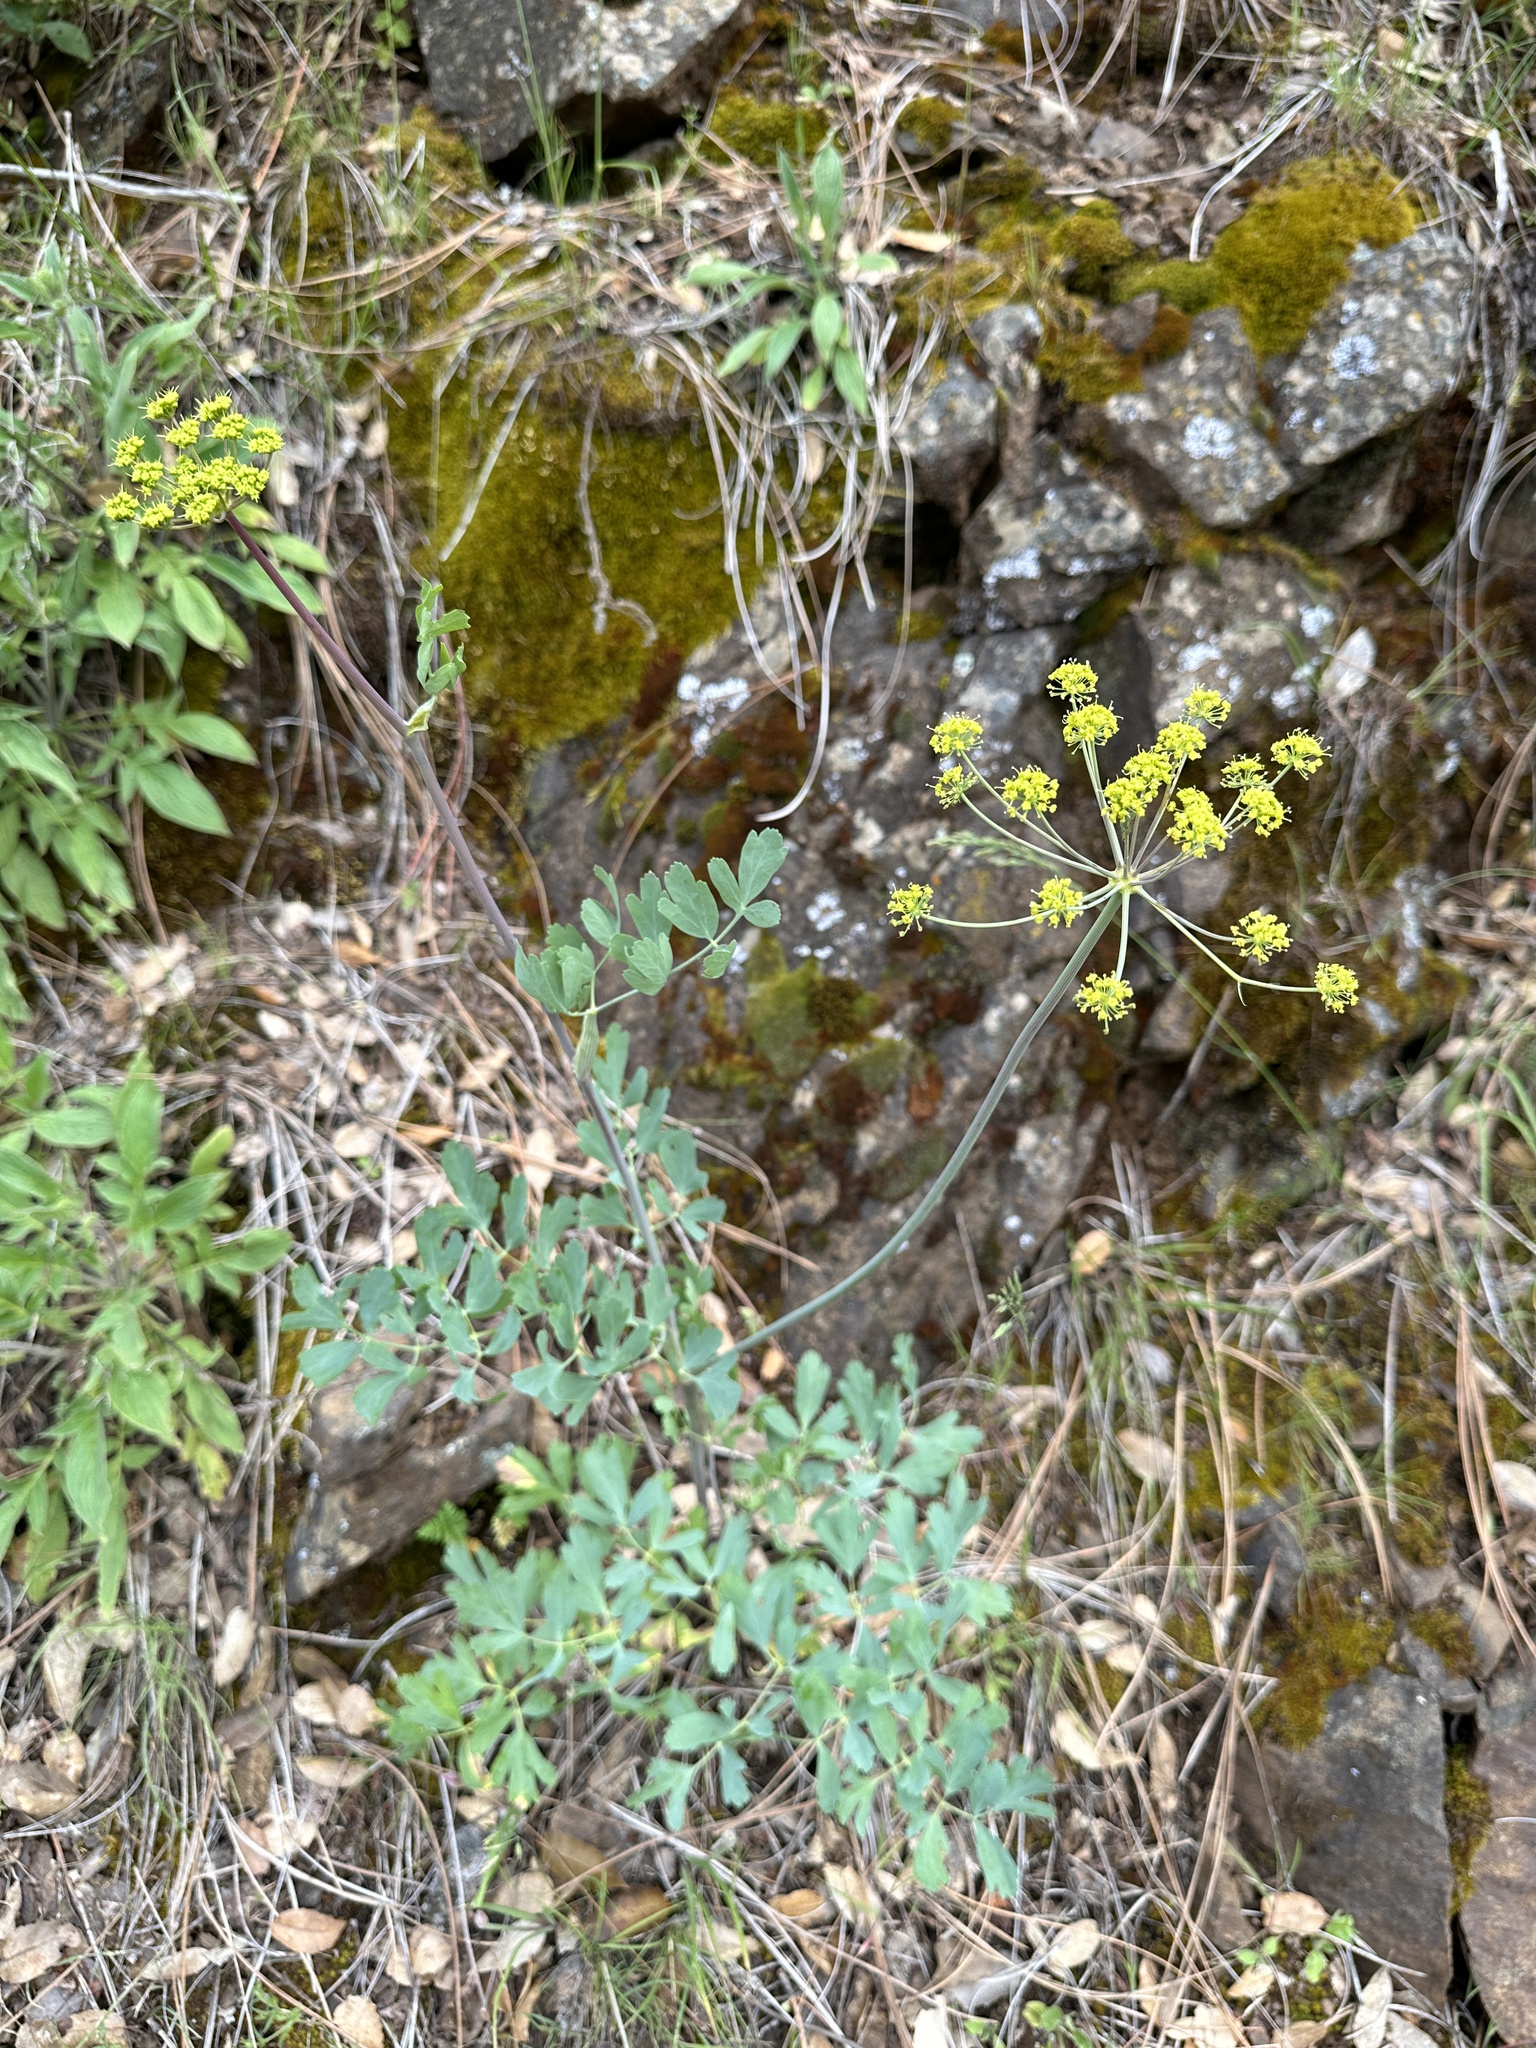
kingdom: Plantae
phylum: Tracheophyta
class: Magnoliopsida
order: Apiales
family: Apiaceae
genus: Lomatium
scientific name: Lomatium californicum
